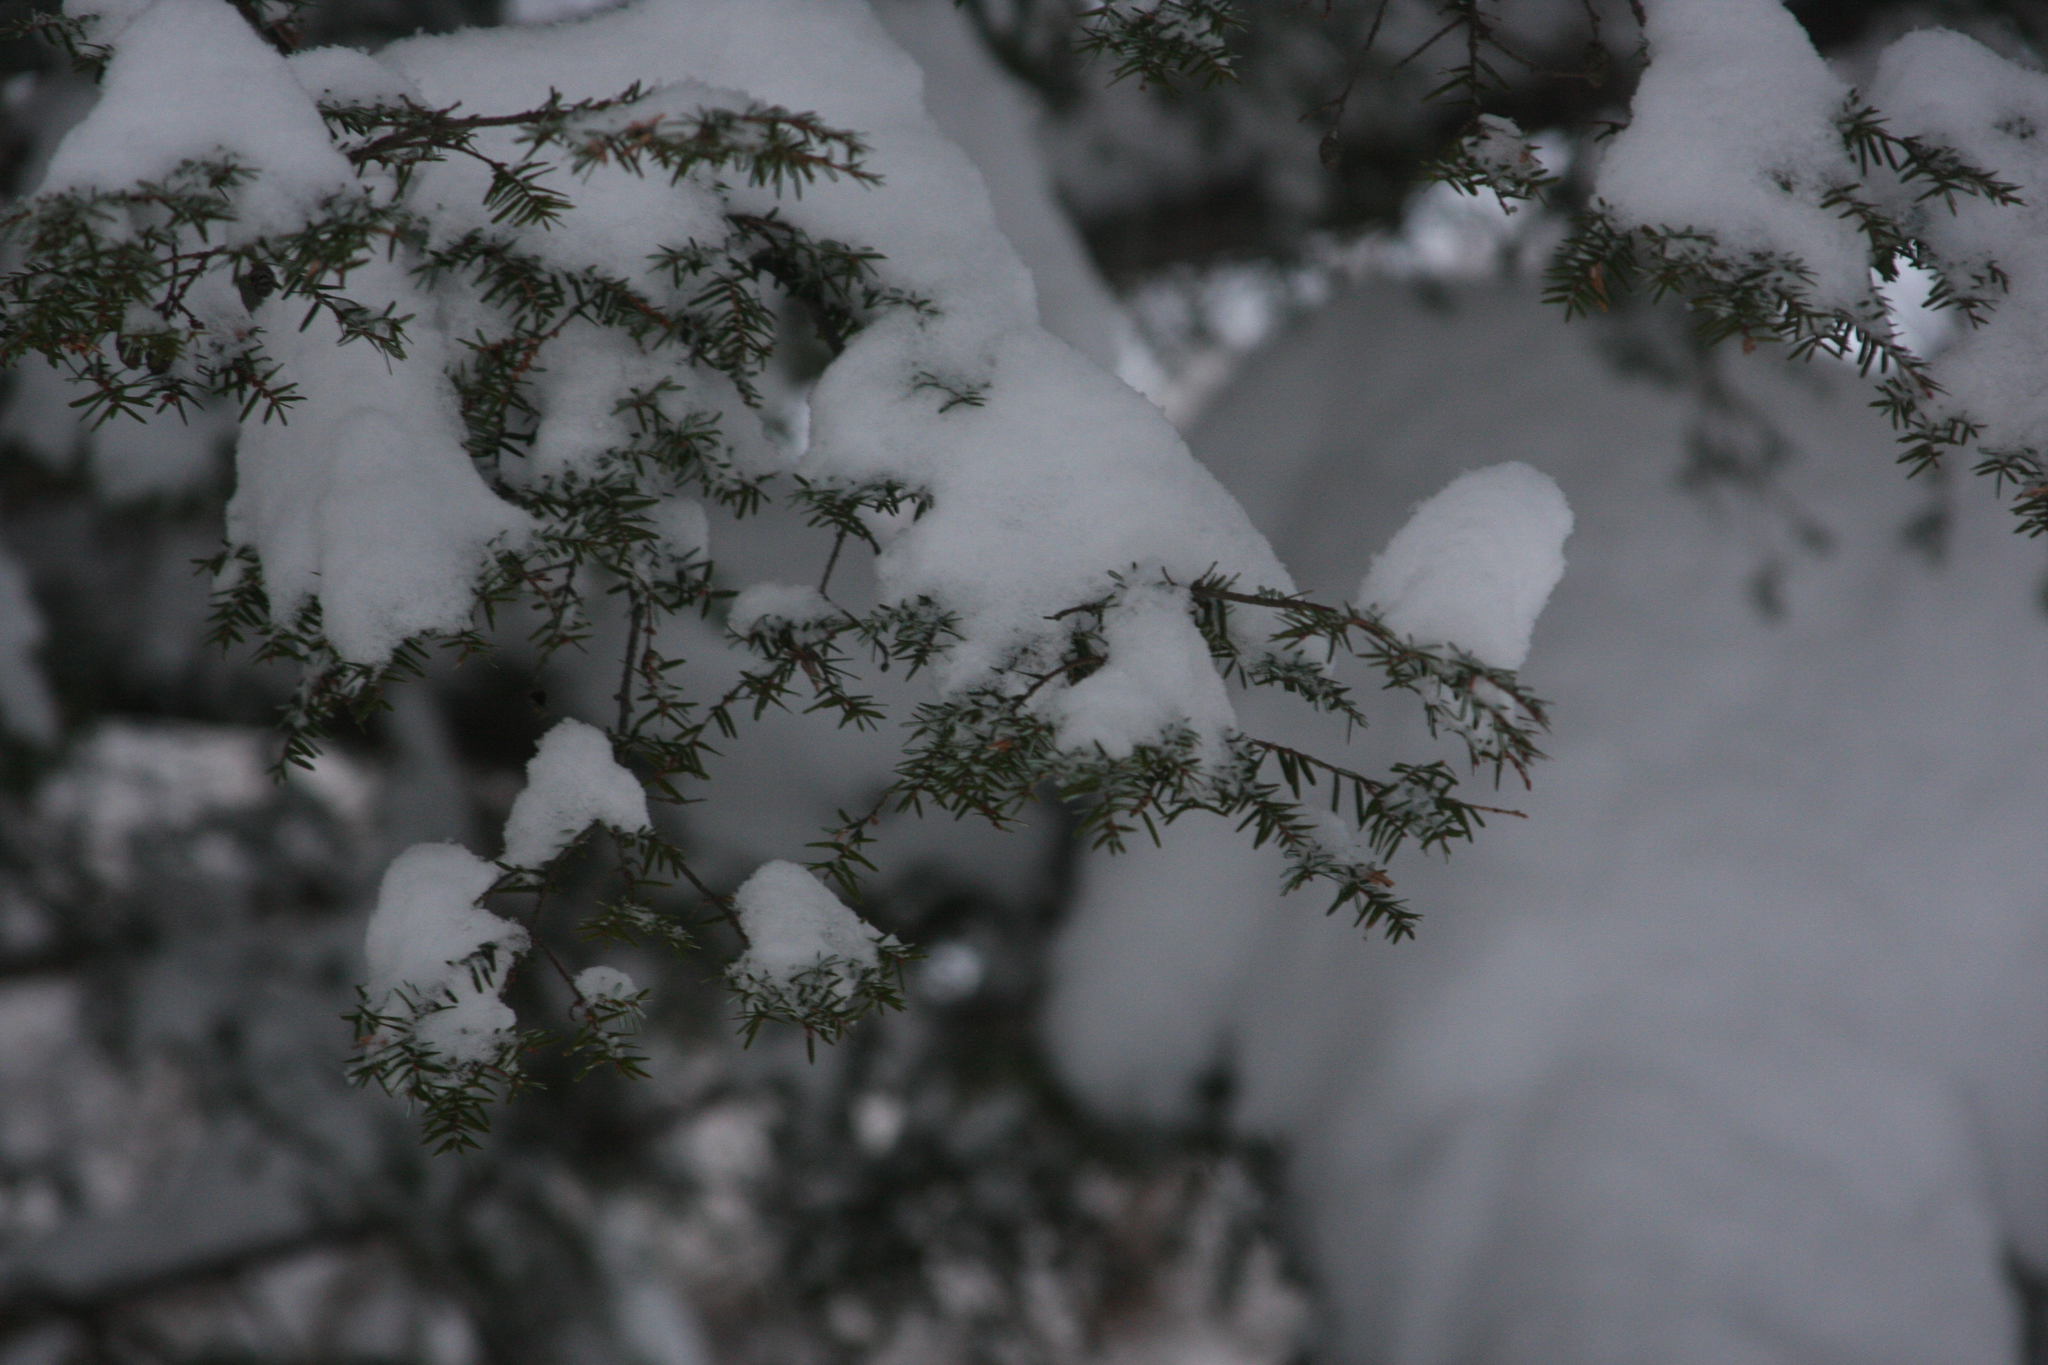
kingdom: Plantae
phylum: Tracheophyta
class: Pinopsida
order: Pinales
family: Pinaceae
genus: Tsuga
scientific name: Tsuga canadensis
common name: Eastern hemlock
